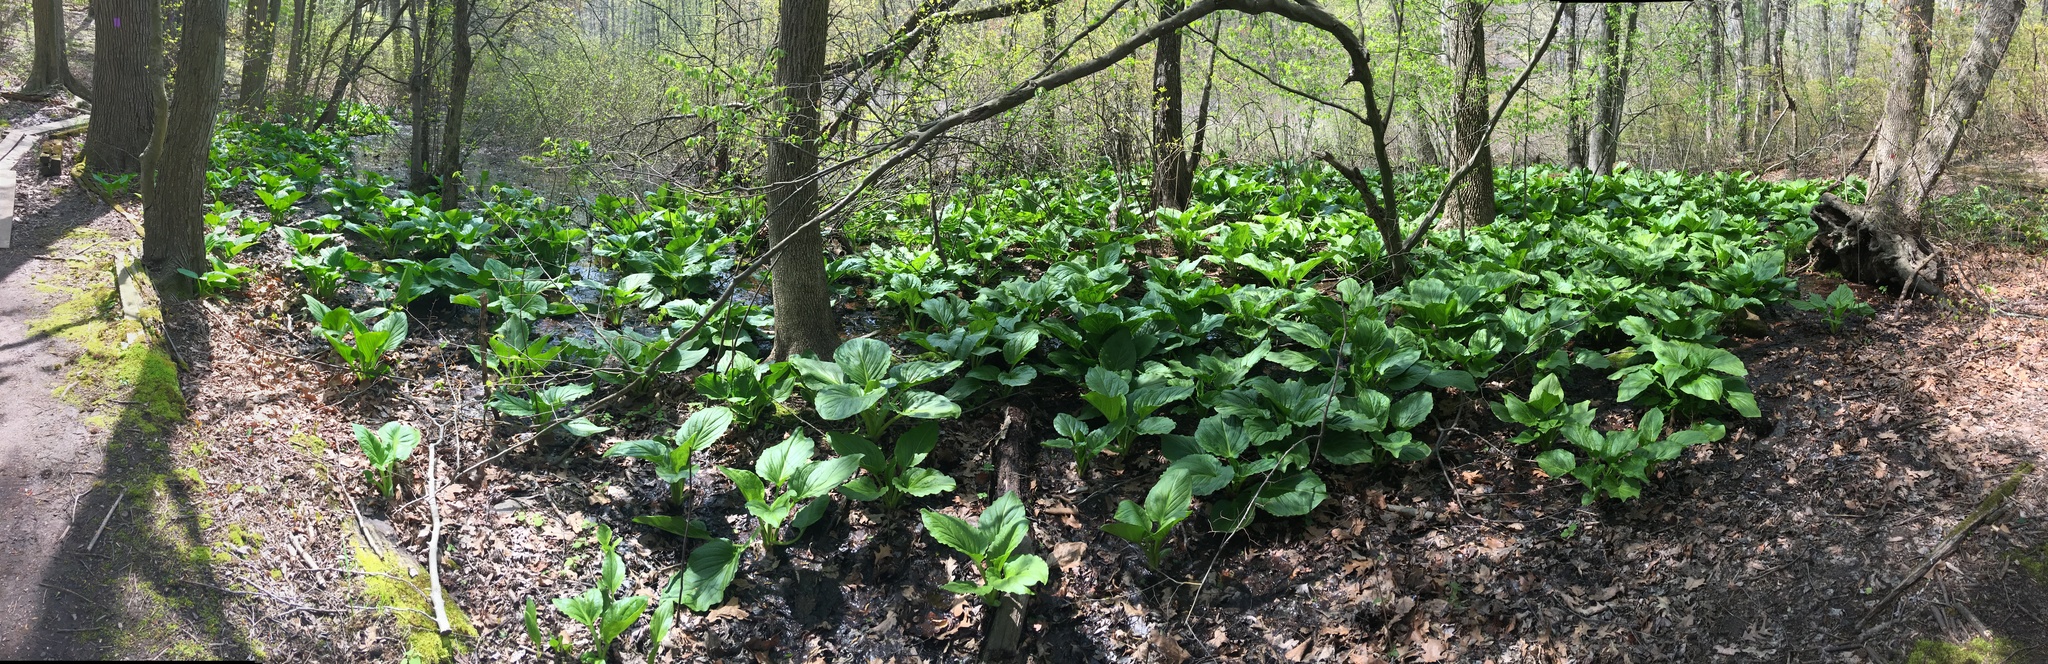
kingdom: Plantae
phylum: Tracheophyta
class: Liliopsida
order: Alismatales
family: Araceae
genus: Symplocarpus
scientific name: Symplocarpus foetidus
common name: Eastern skunk cabbage
